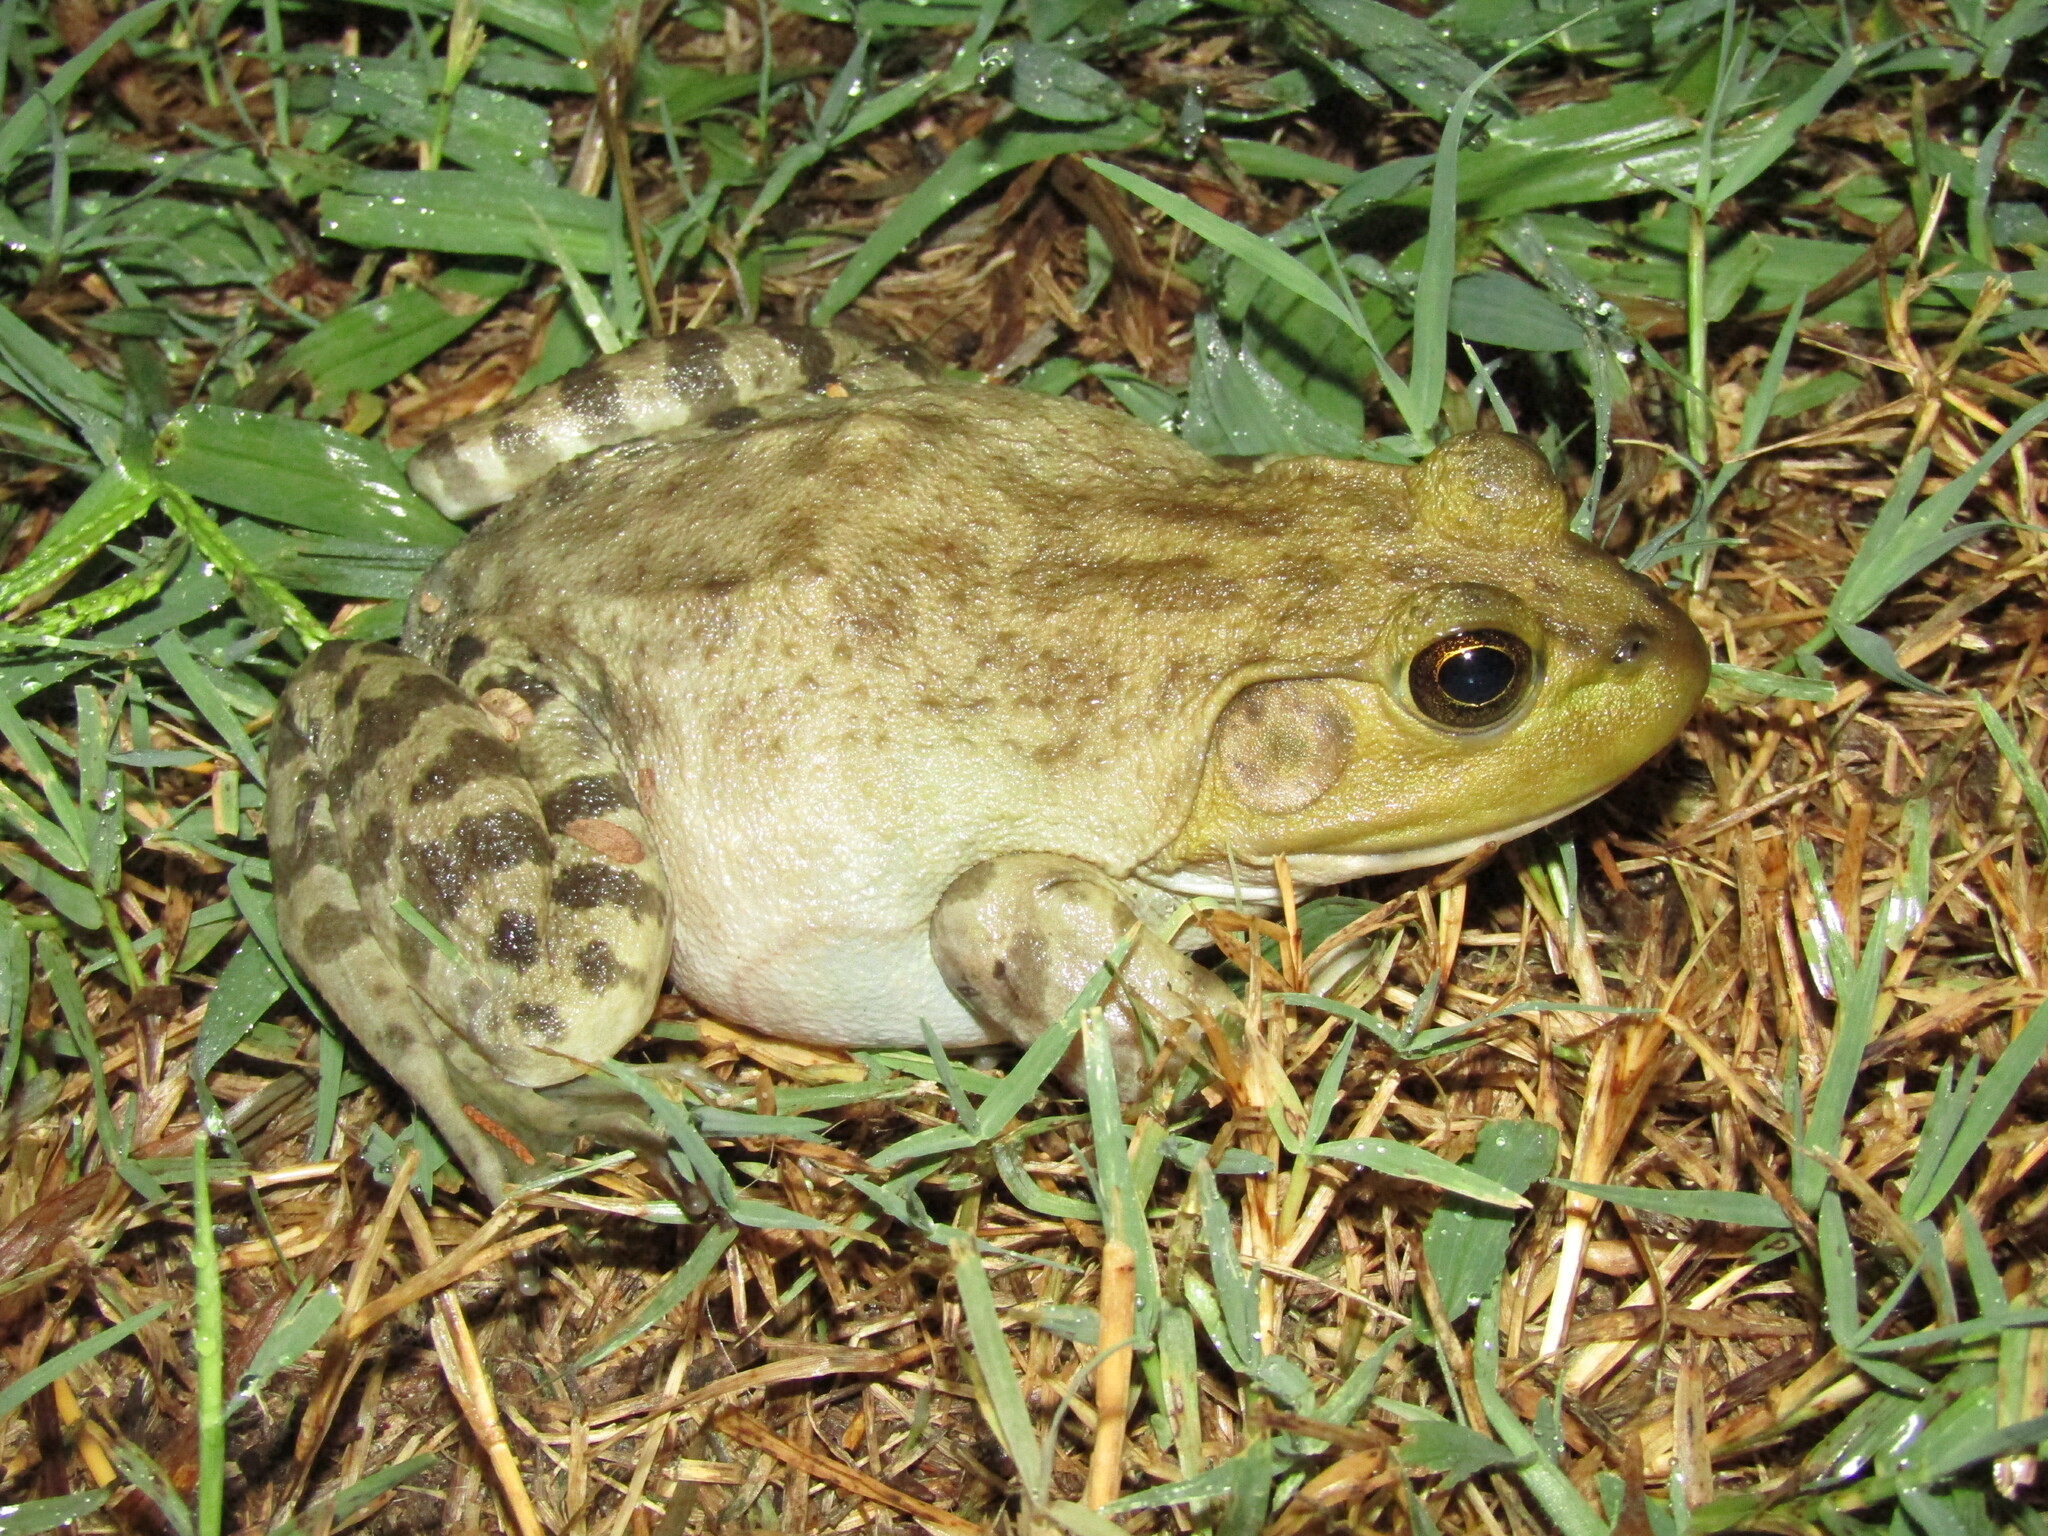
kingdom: Animalia
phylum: Chordata
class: Amphibia
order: Anura
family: Ranidae
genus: Lithobates
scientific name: Lithobates catesbeianus
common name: American bullfrog
